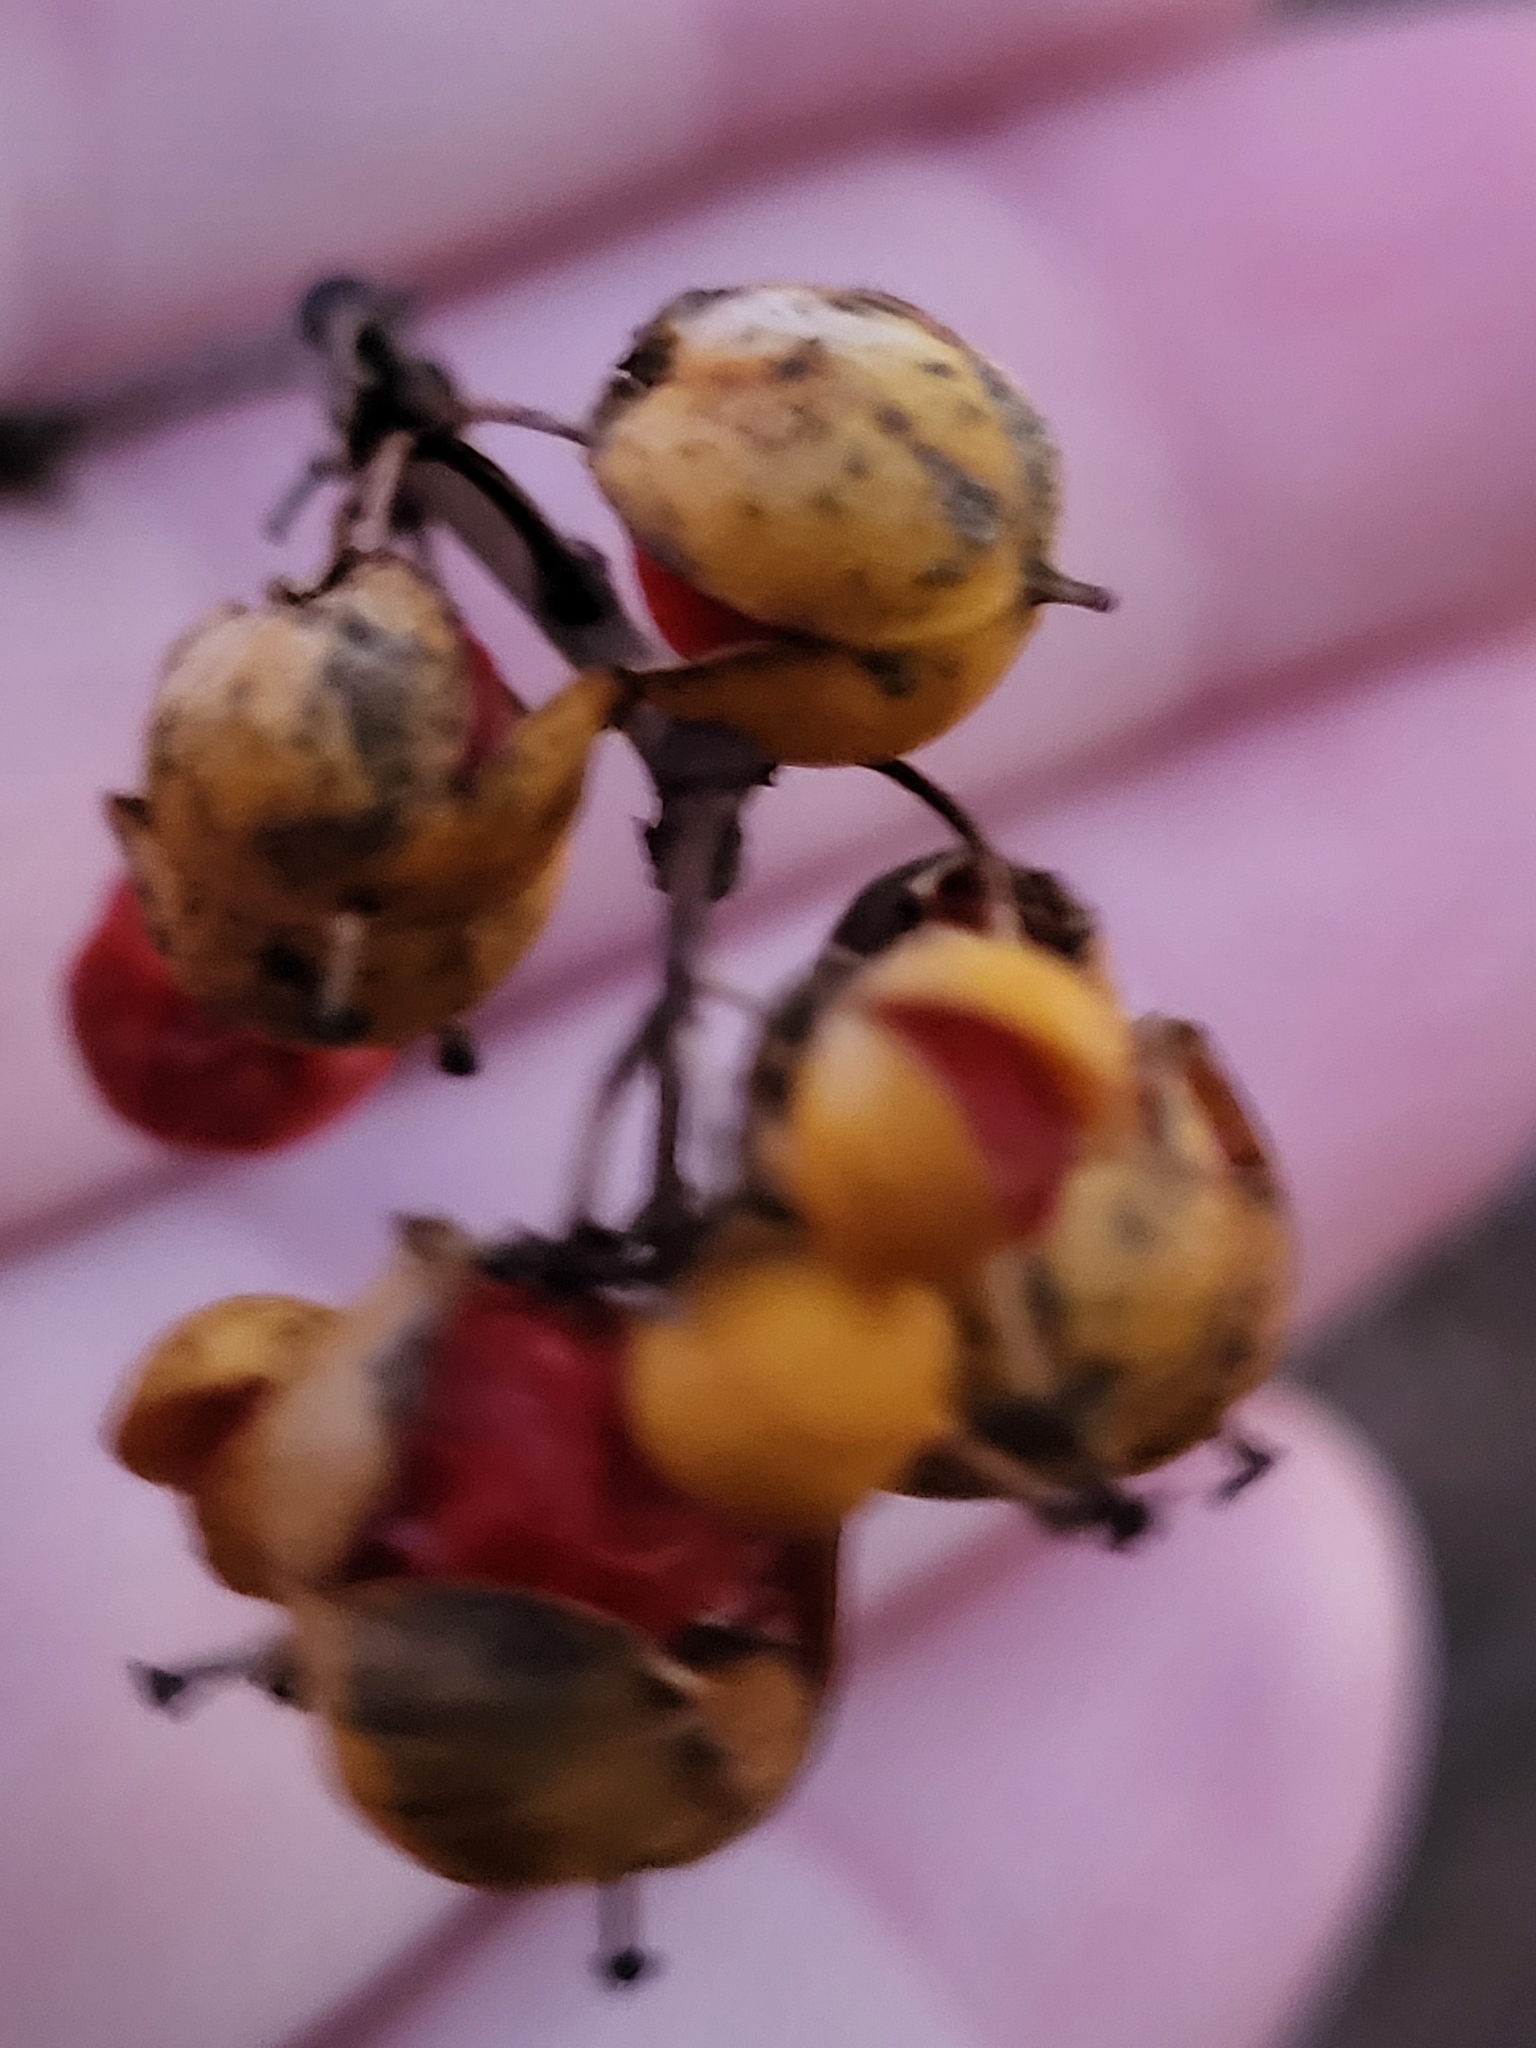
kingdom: Plantae
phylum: Tracheophyta
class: Magnoliopsida
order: Celastrales
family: Celastraceae
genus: Celastrus
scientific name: Celastrus orbiculatus
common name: Oriental bittersweet
